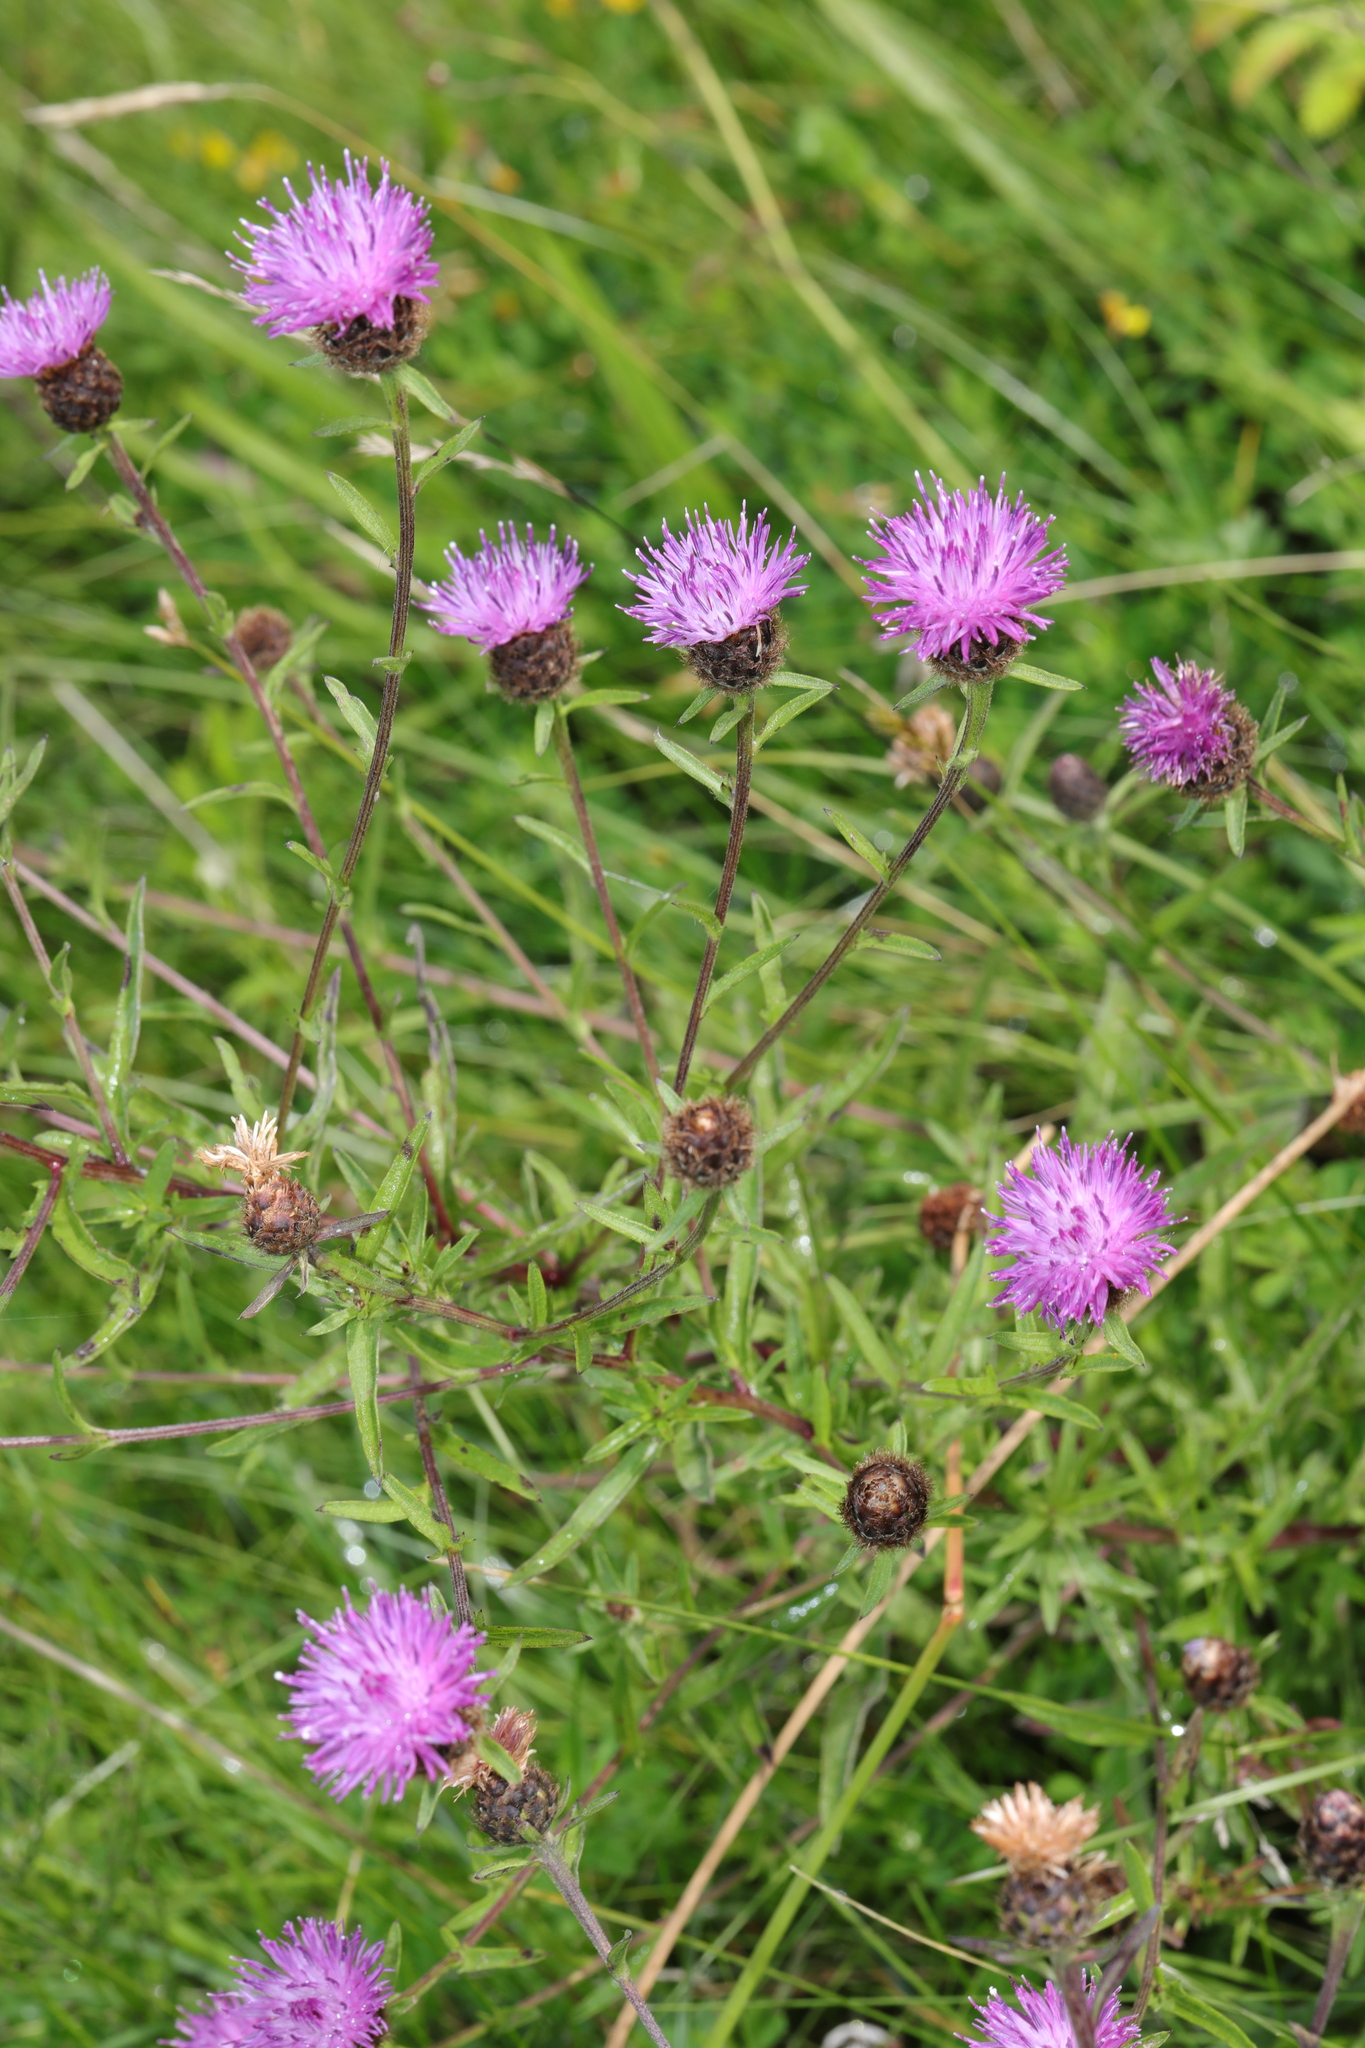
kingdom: Plantae
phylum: Tracheophyta
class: Magnoliopsida
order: Asterales
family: Asteraceae
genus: Centaurea
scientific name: Centaurea nigra
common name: Lesser knapweed
